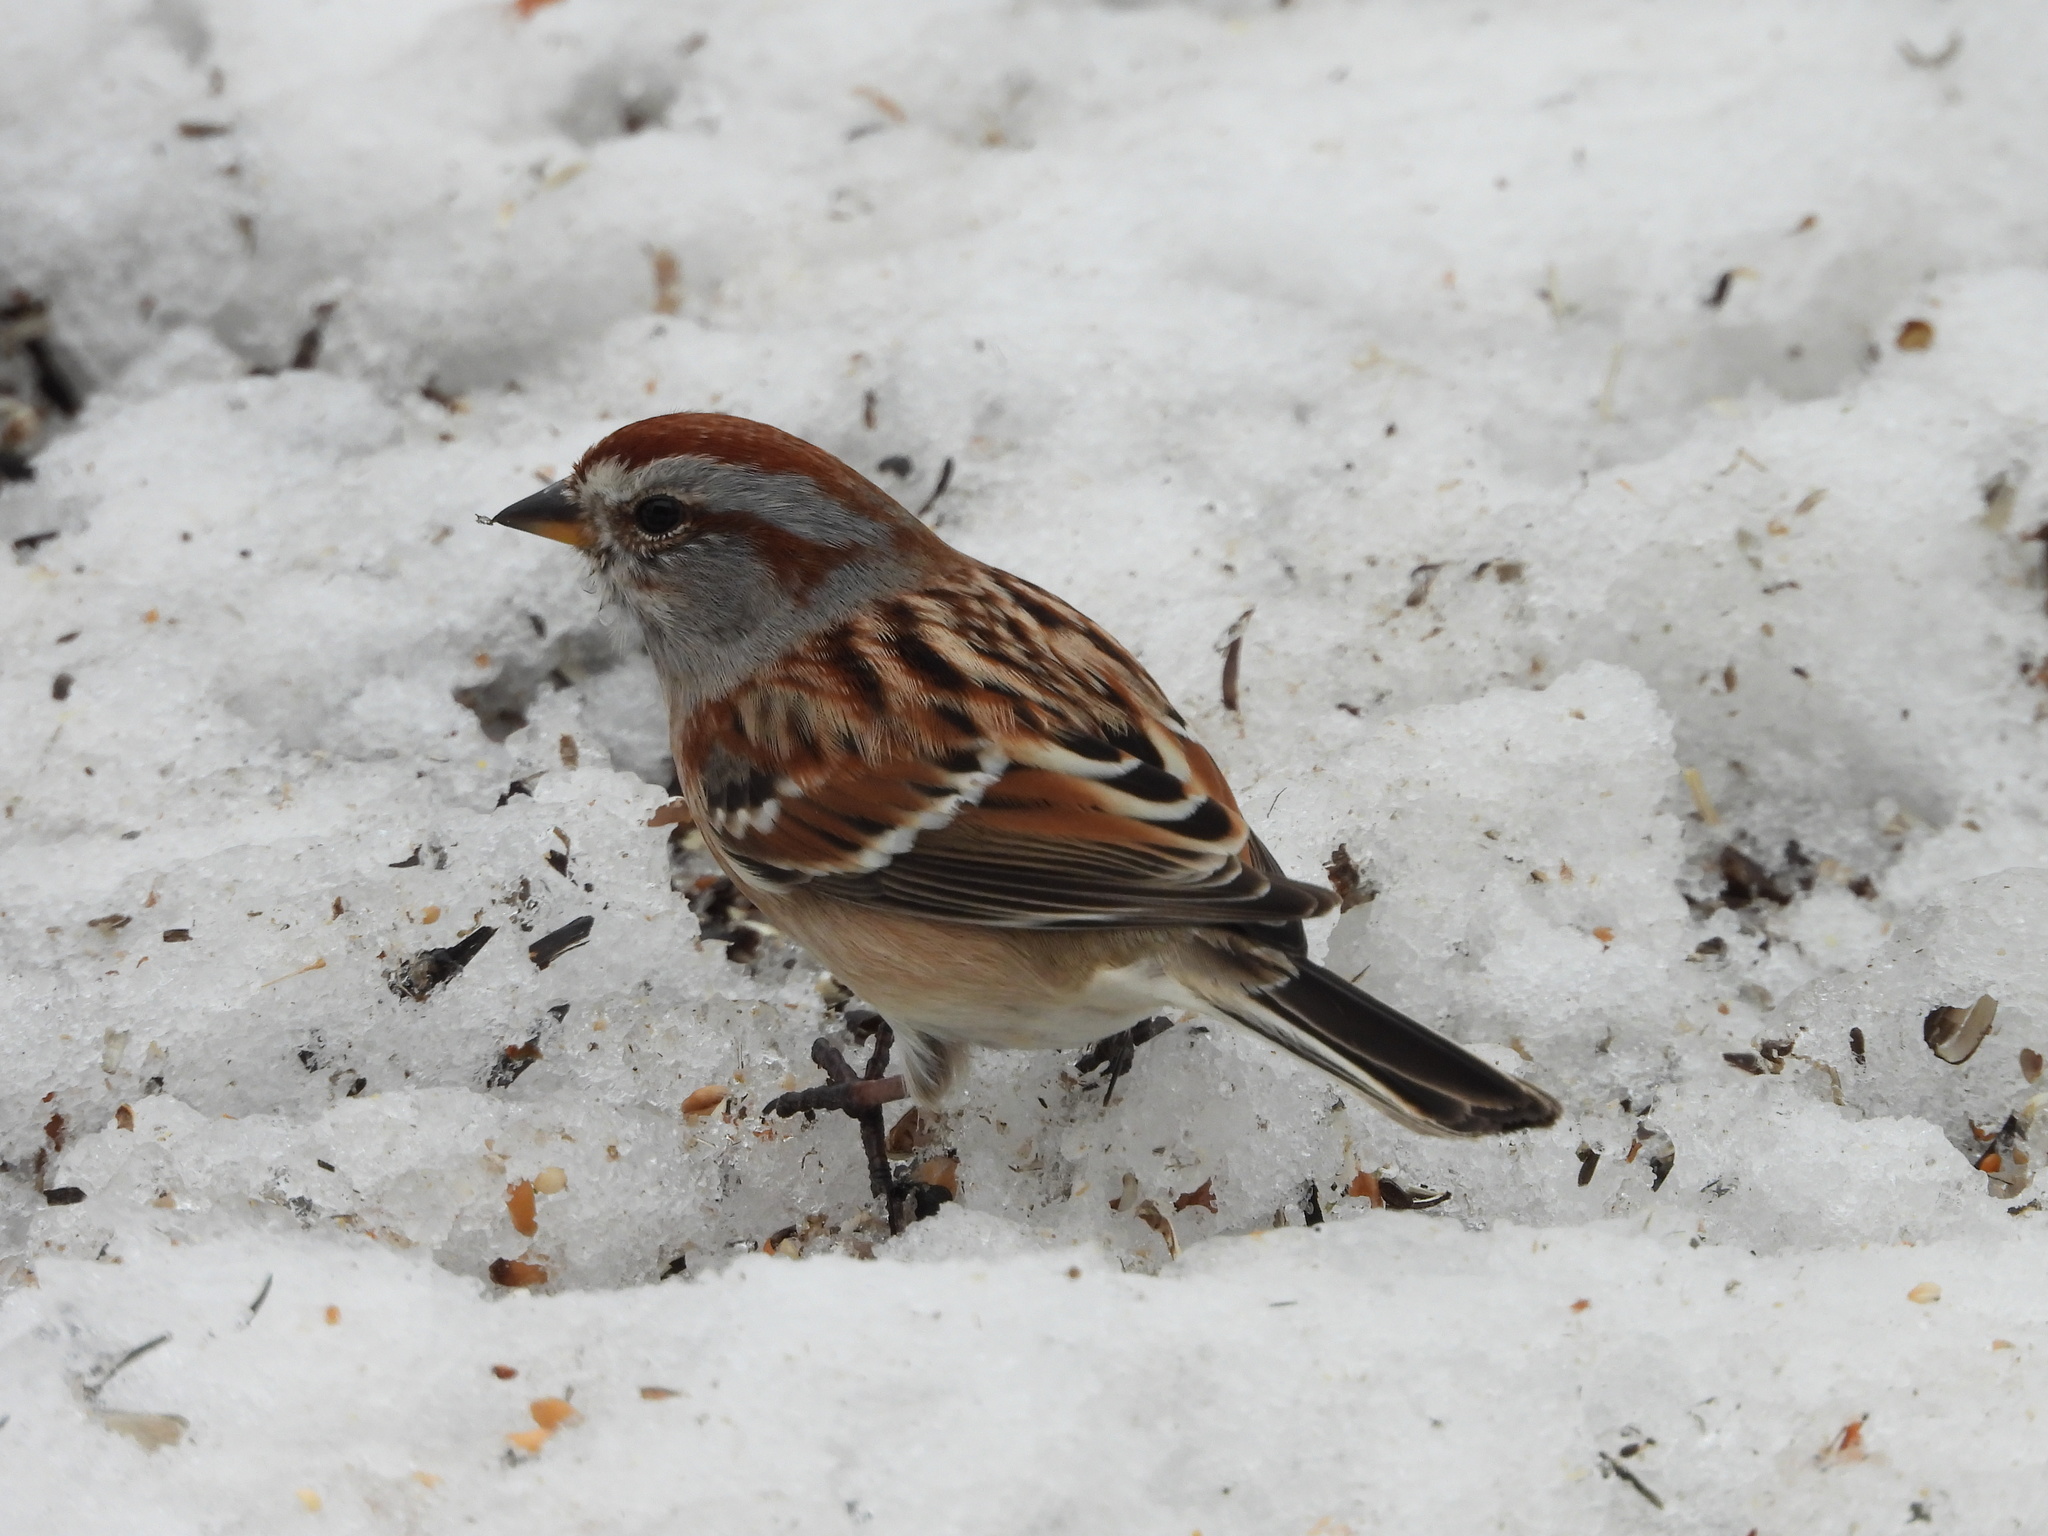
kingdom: Animalia
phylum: Chordata
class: Aves
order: Passeriformes
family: Passerellidae
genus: Spizelloides
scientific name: Spizelloides arborea
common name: American tree sparrow
